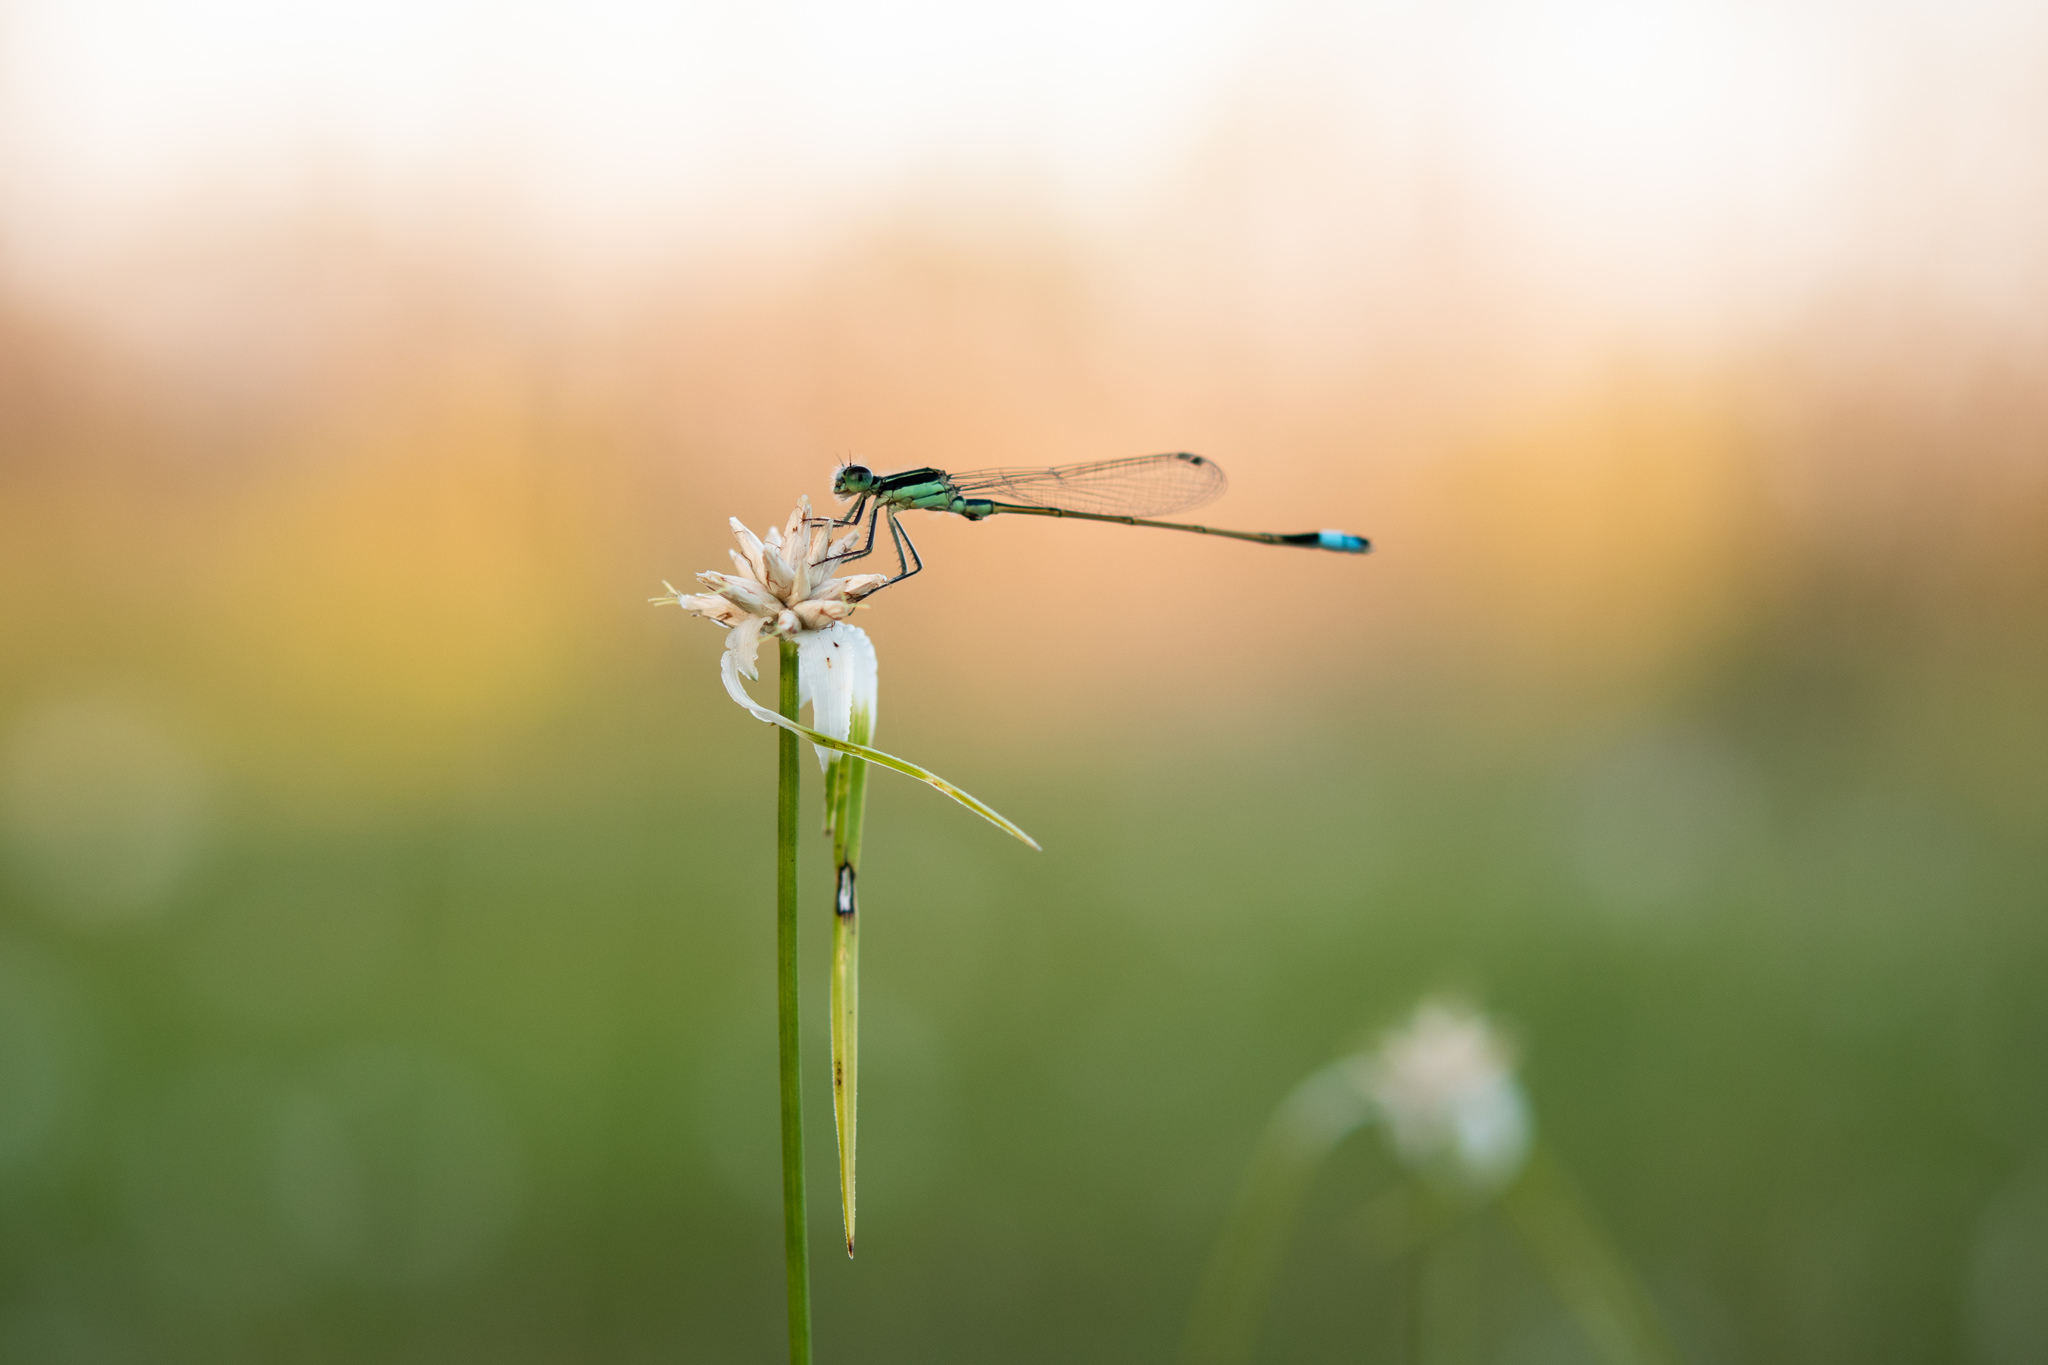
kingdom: Animalia
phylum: Arthropoda
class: Insecta
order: Odonata
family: Coenagrionidae
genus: Ischnura
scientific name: Ischnura ramburii
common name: Rambur's forktail
